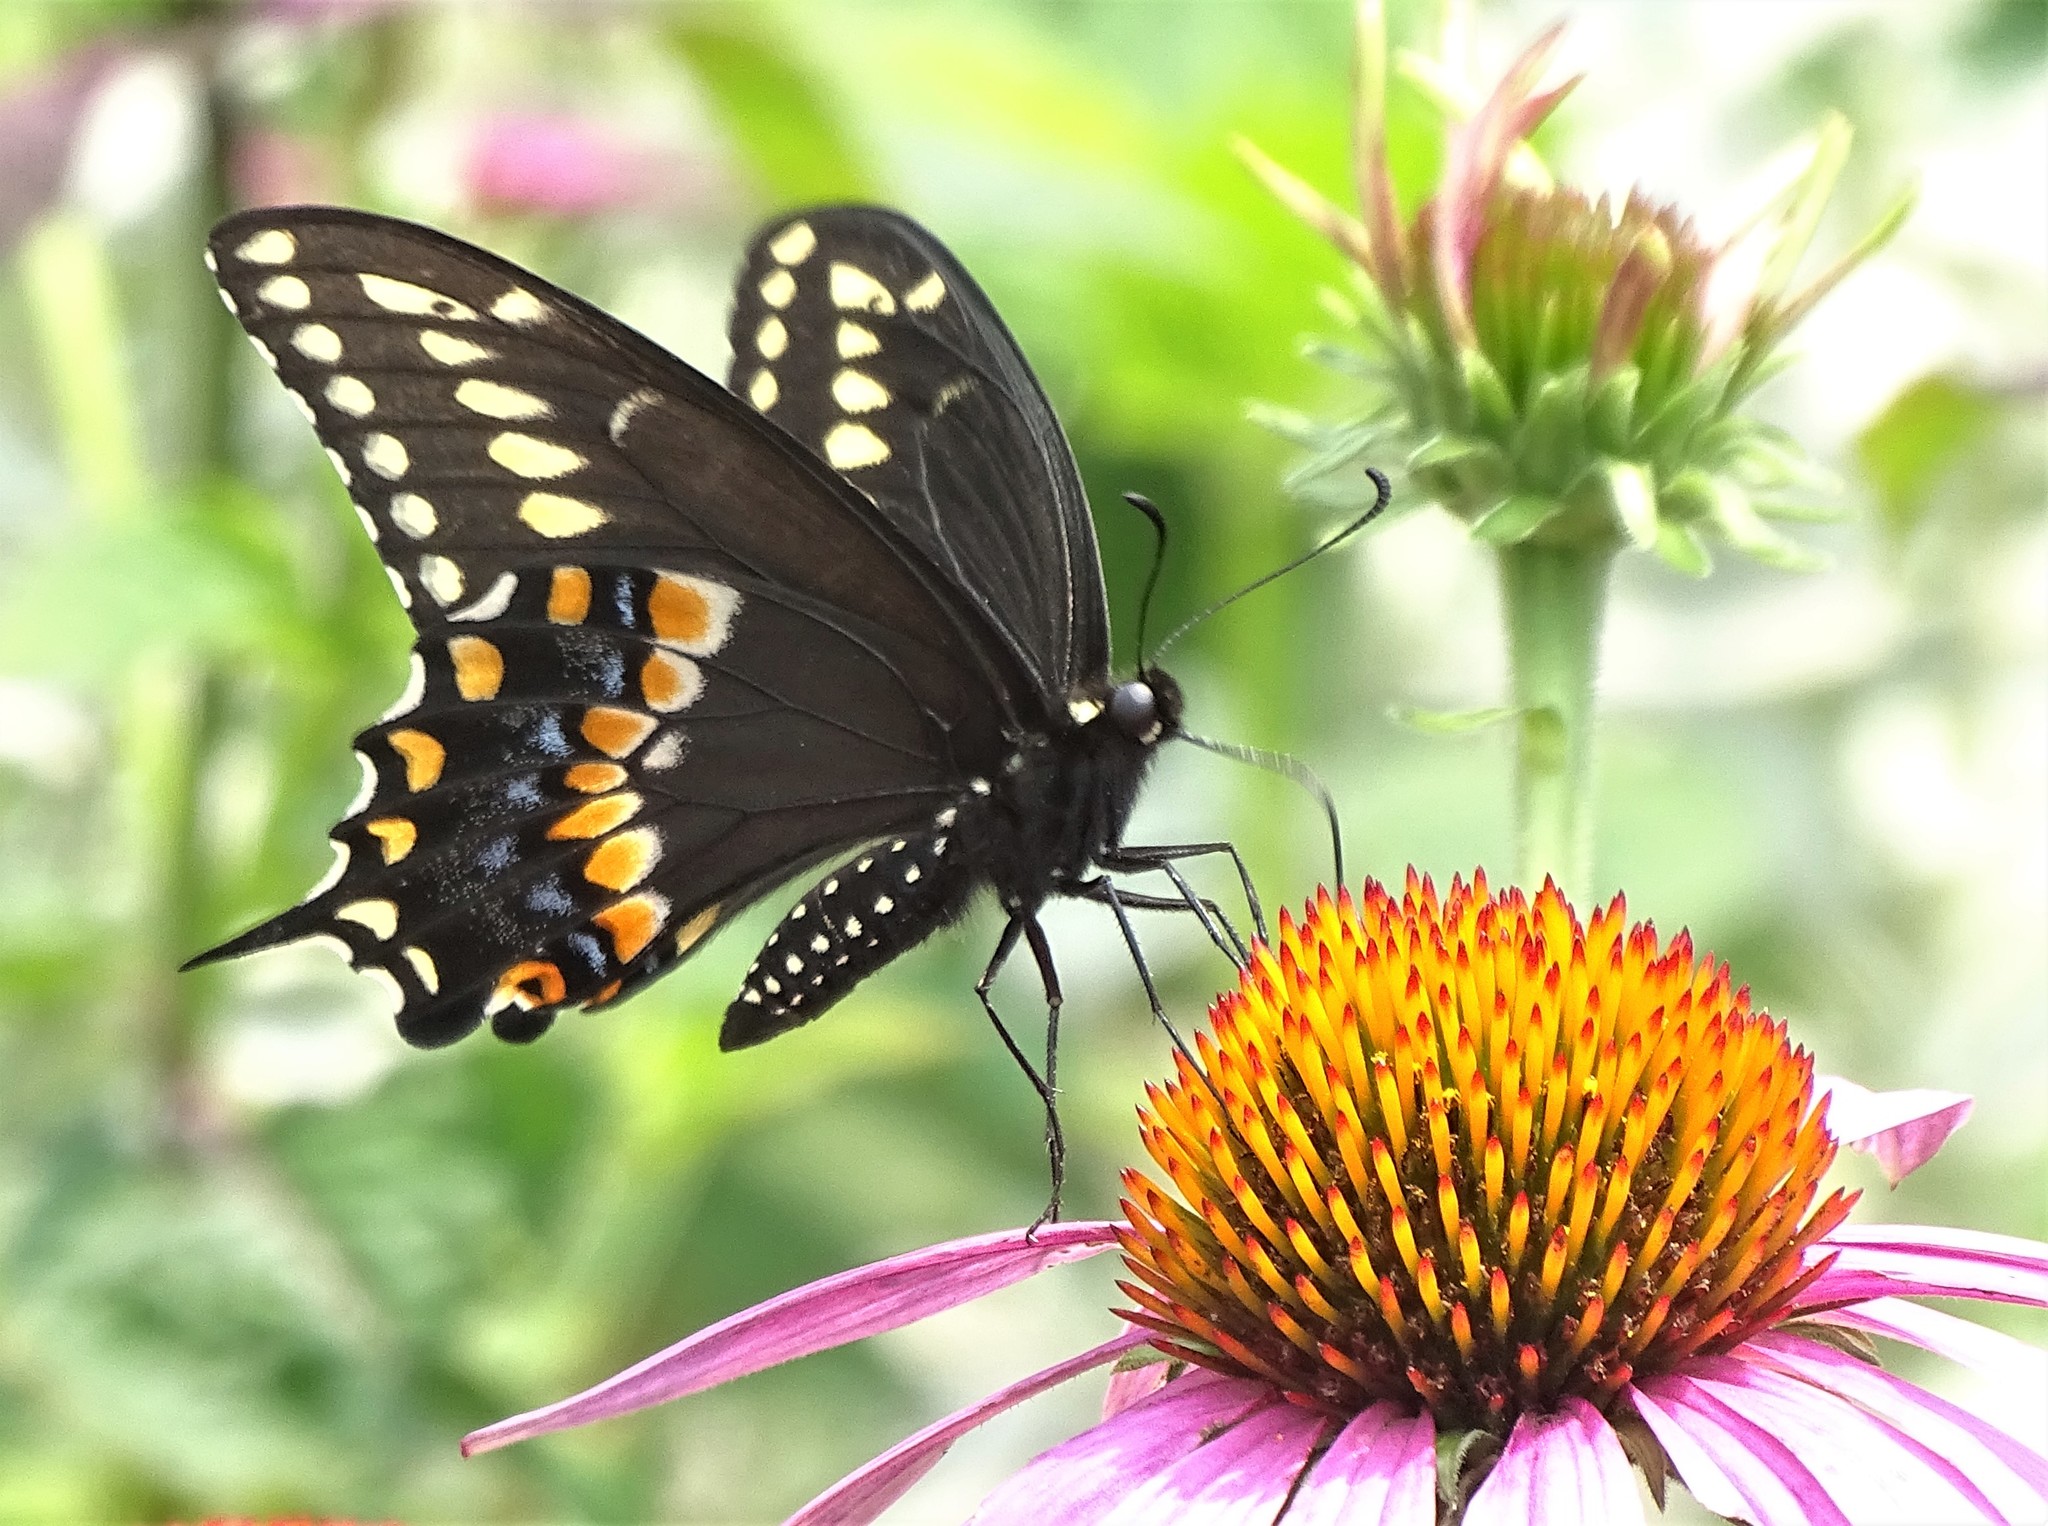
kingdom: Animalia
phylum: Arthropoda
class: Insecta
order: Lepidoptera
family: Papilionidae
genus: Papilio
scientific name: Papilio polyxenes
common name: Black swallowtail
